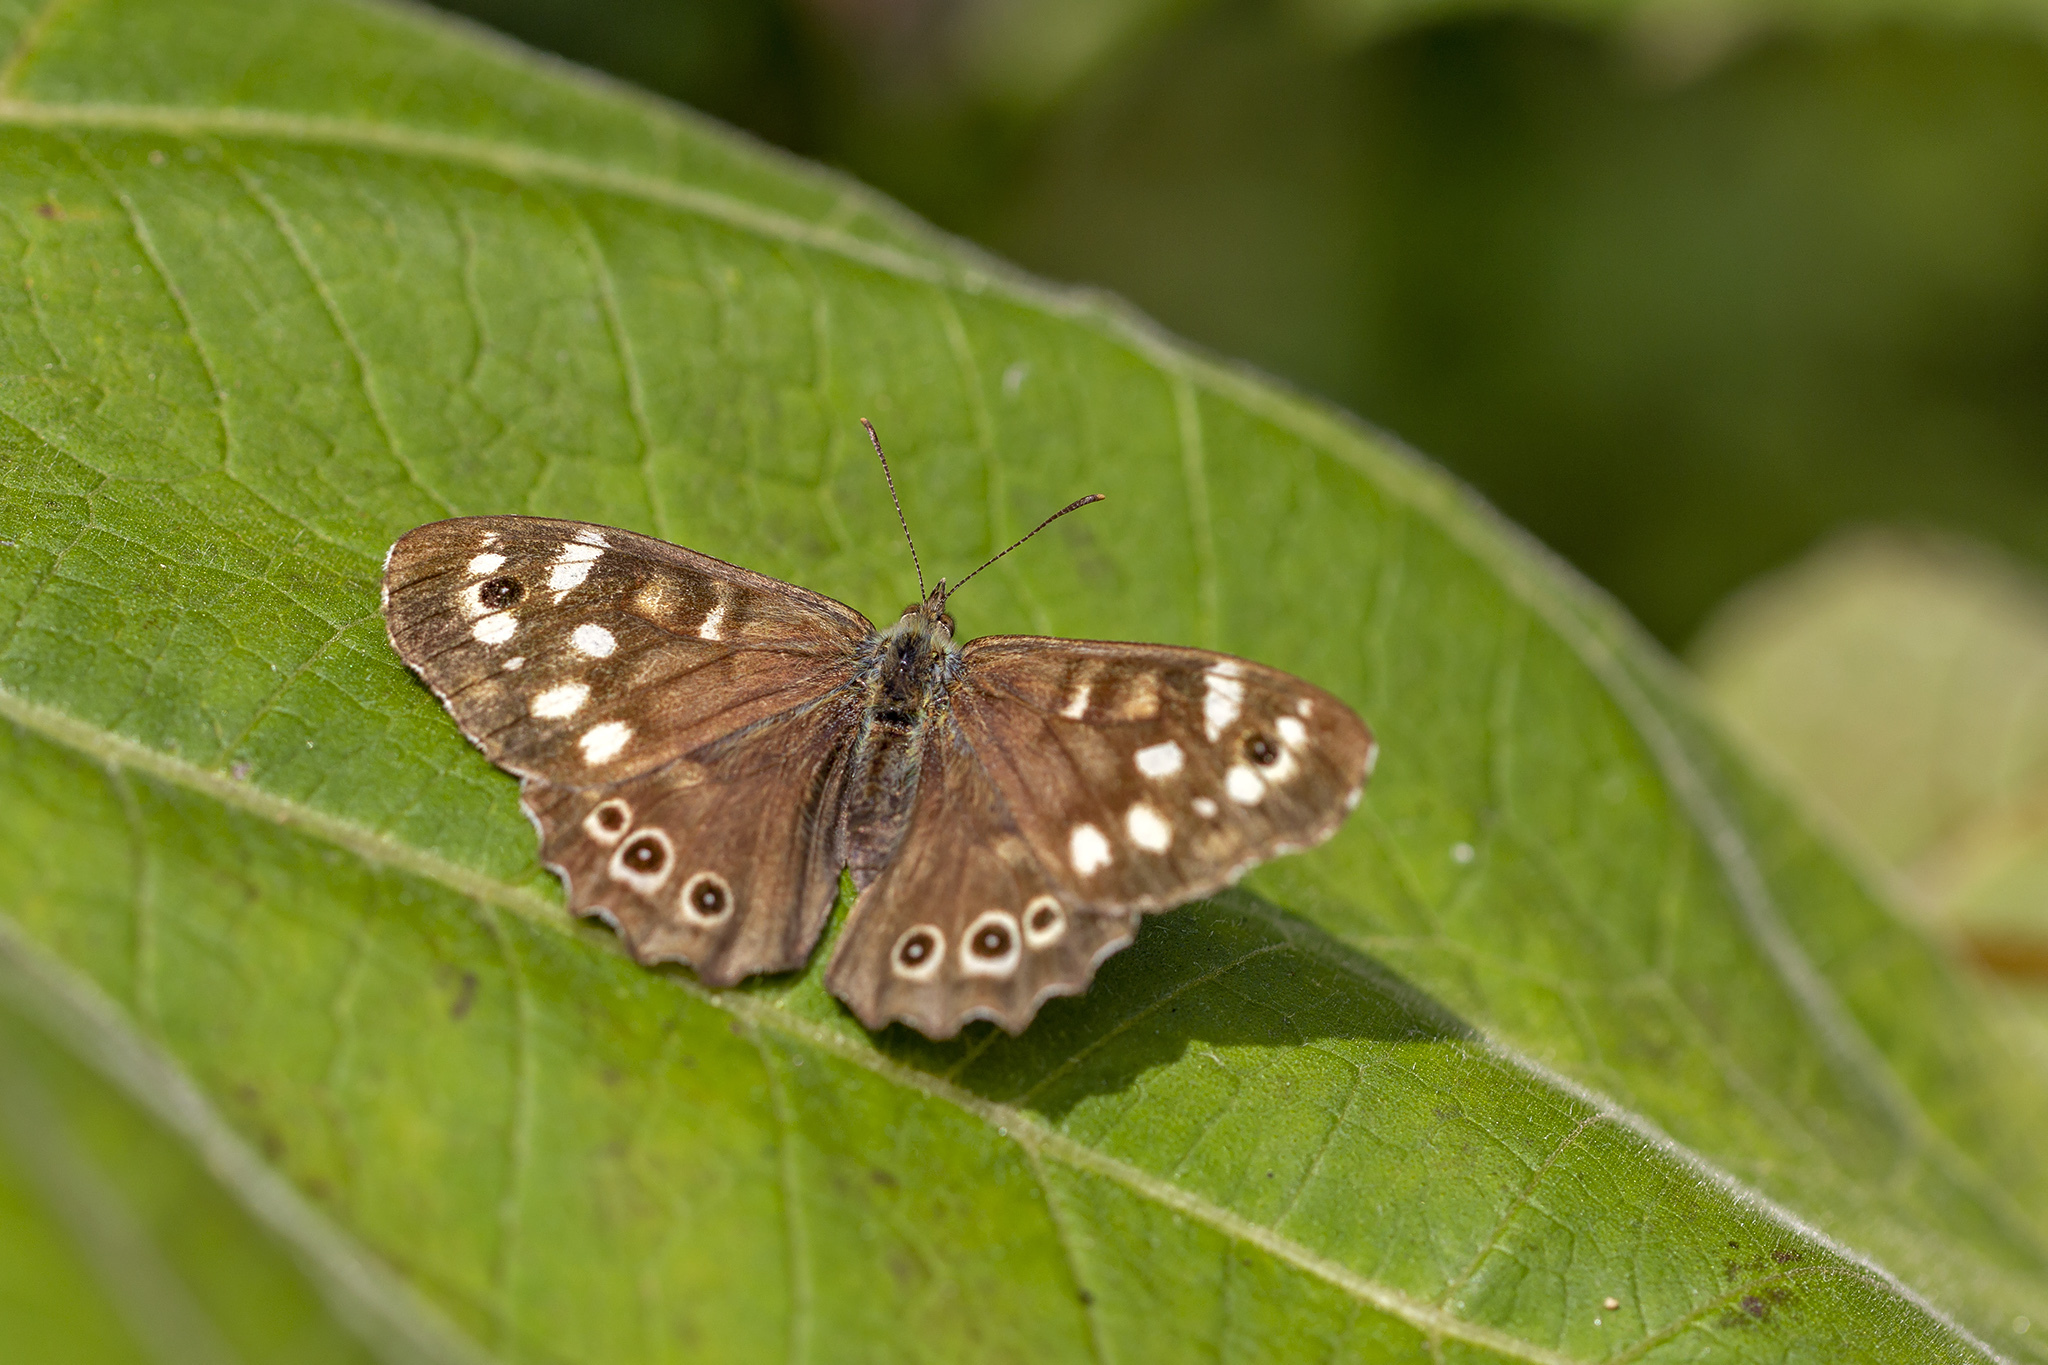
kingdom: Animalia
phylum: Arthropoda
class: Insecta
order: Lepidoptera
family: Nymphalidae
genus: Pararge
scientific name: Pararge aegeria
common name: Speckled wood
